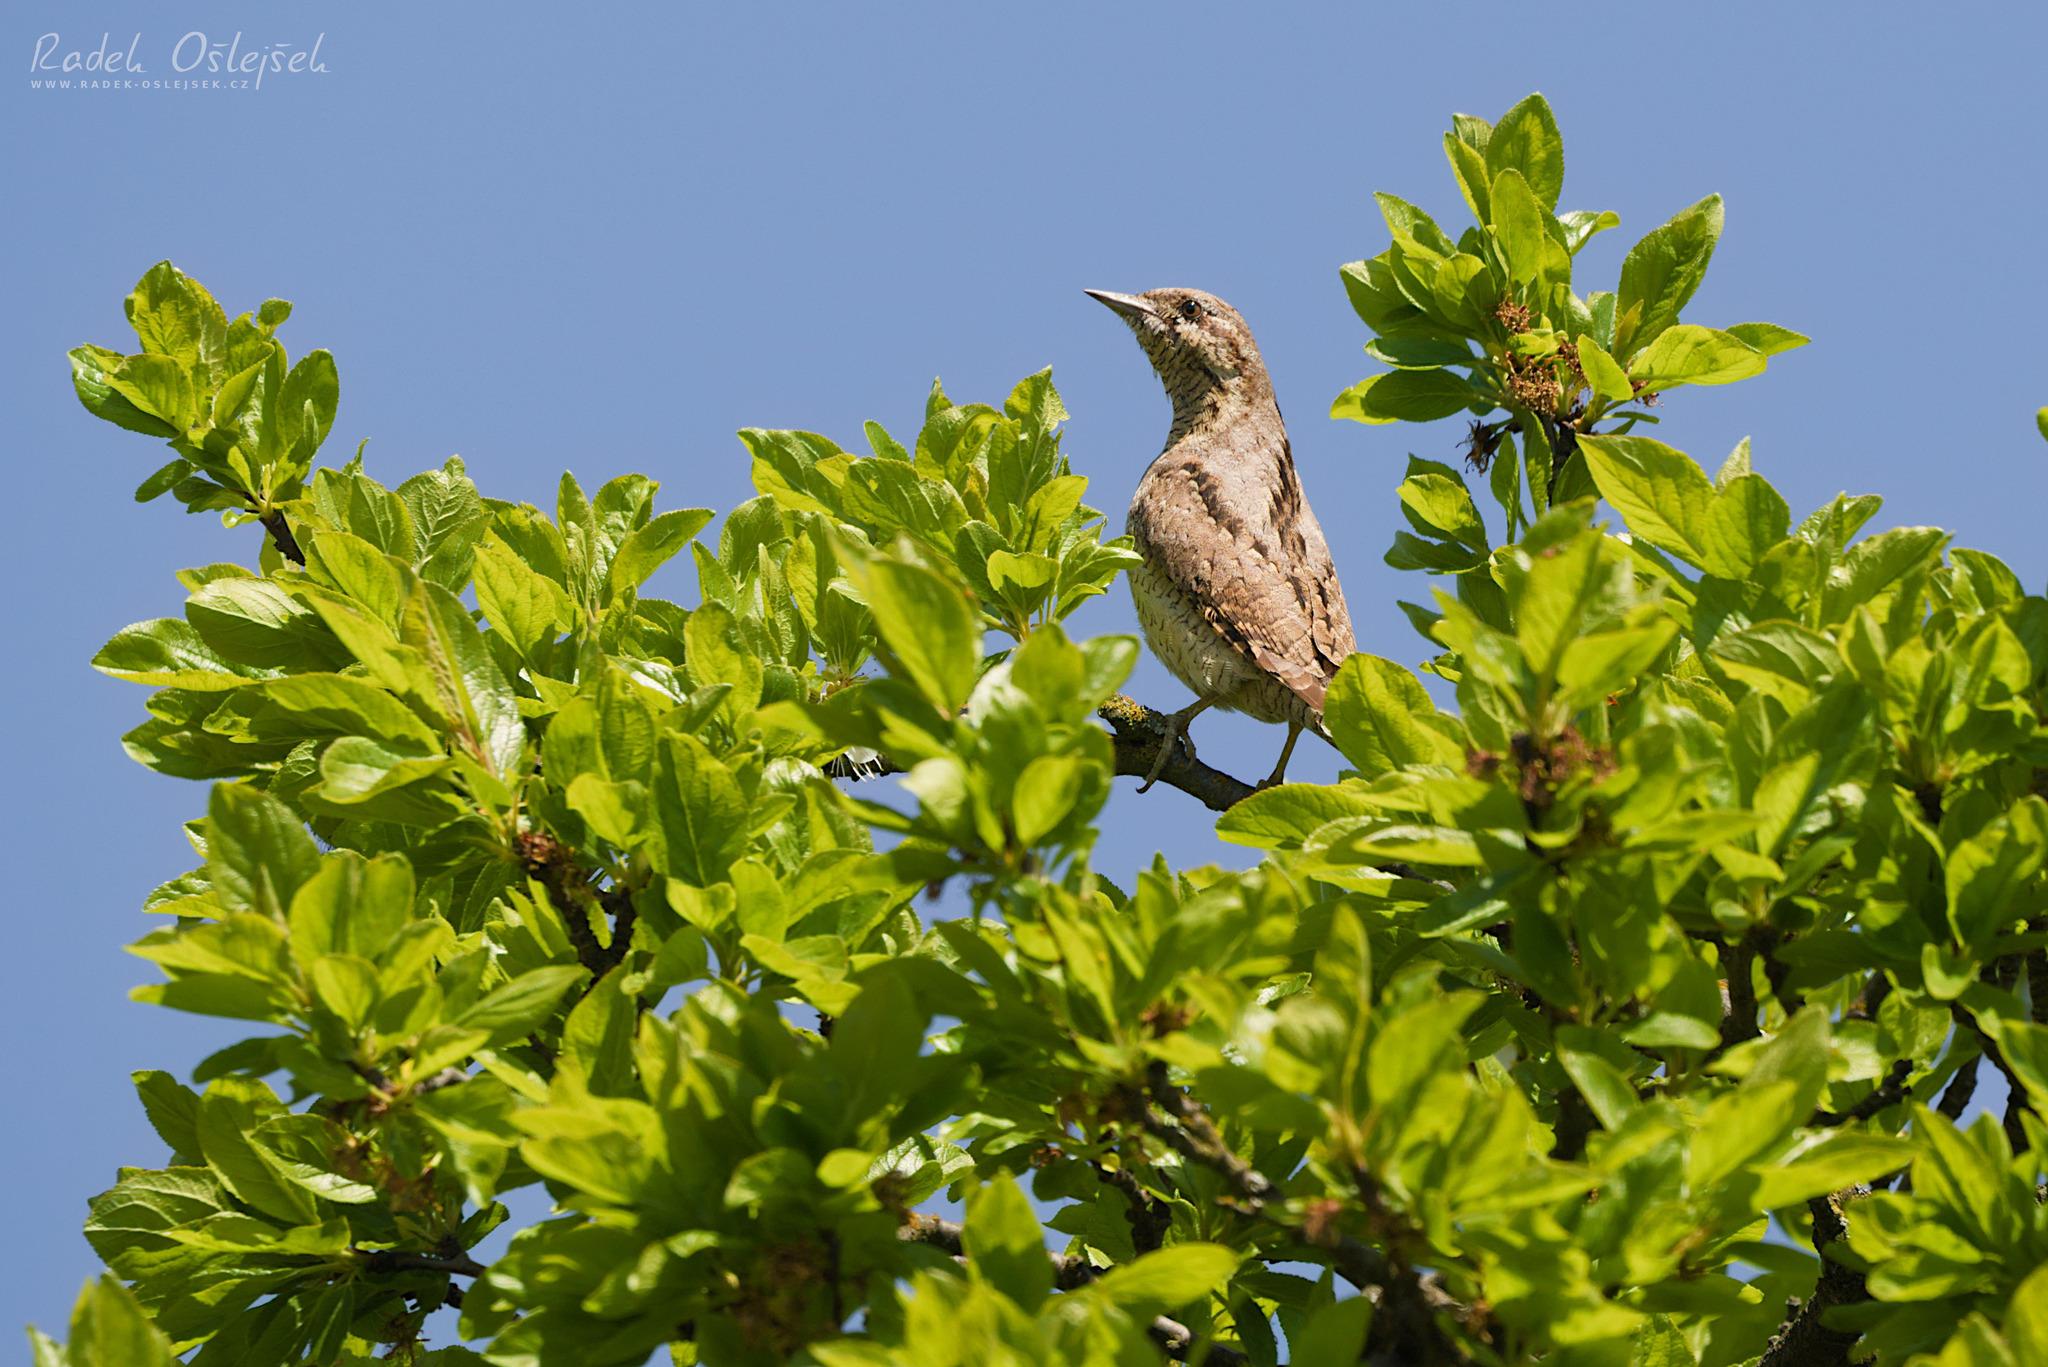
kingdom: Animalia
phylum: Chordata
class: Aves
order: Piciformes
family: Picidae
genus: Jynx
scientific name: Jynx torquilla
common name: Eurasian wryneck
